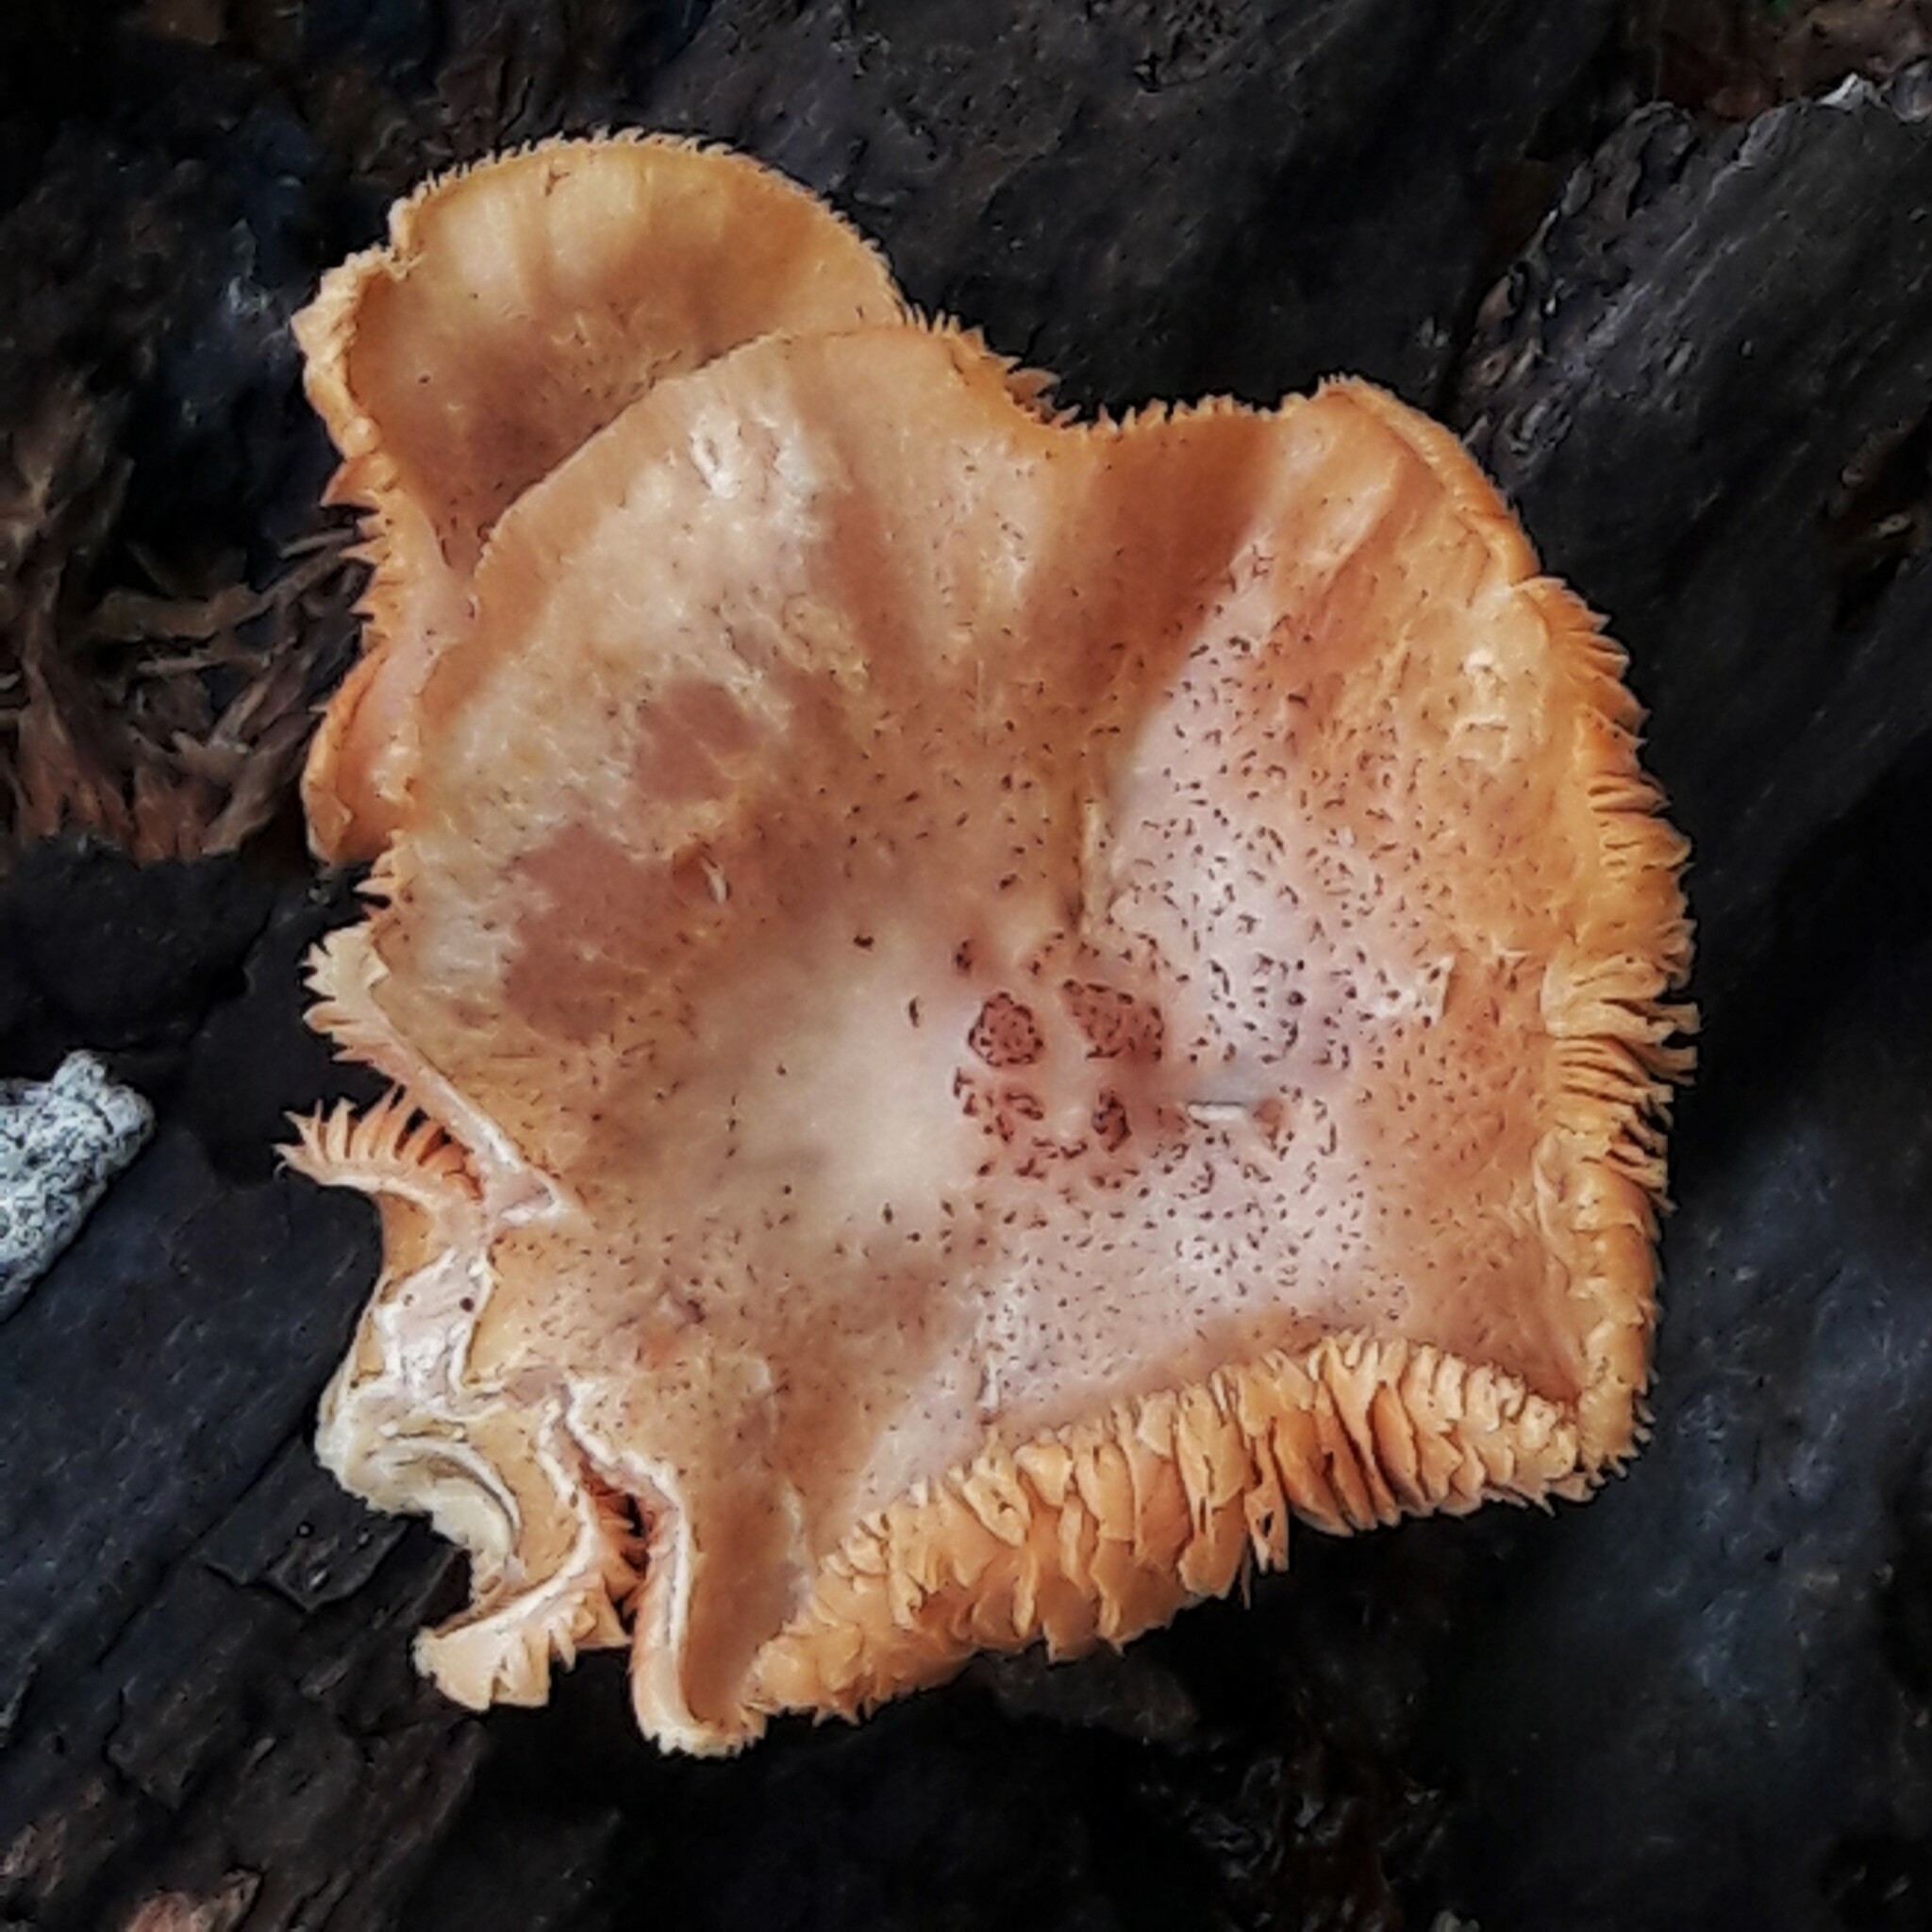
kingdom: Fungi
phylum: Basidiomycota
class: Agaricomycetes
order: Agaricales
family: Hymenogastraceae
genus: Gymnopilus
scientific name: Gymnopilus luteofolius
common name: Yellow-gilled gymnopilus
